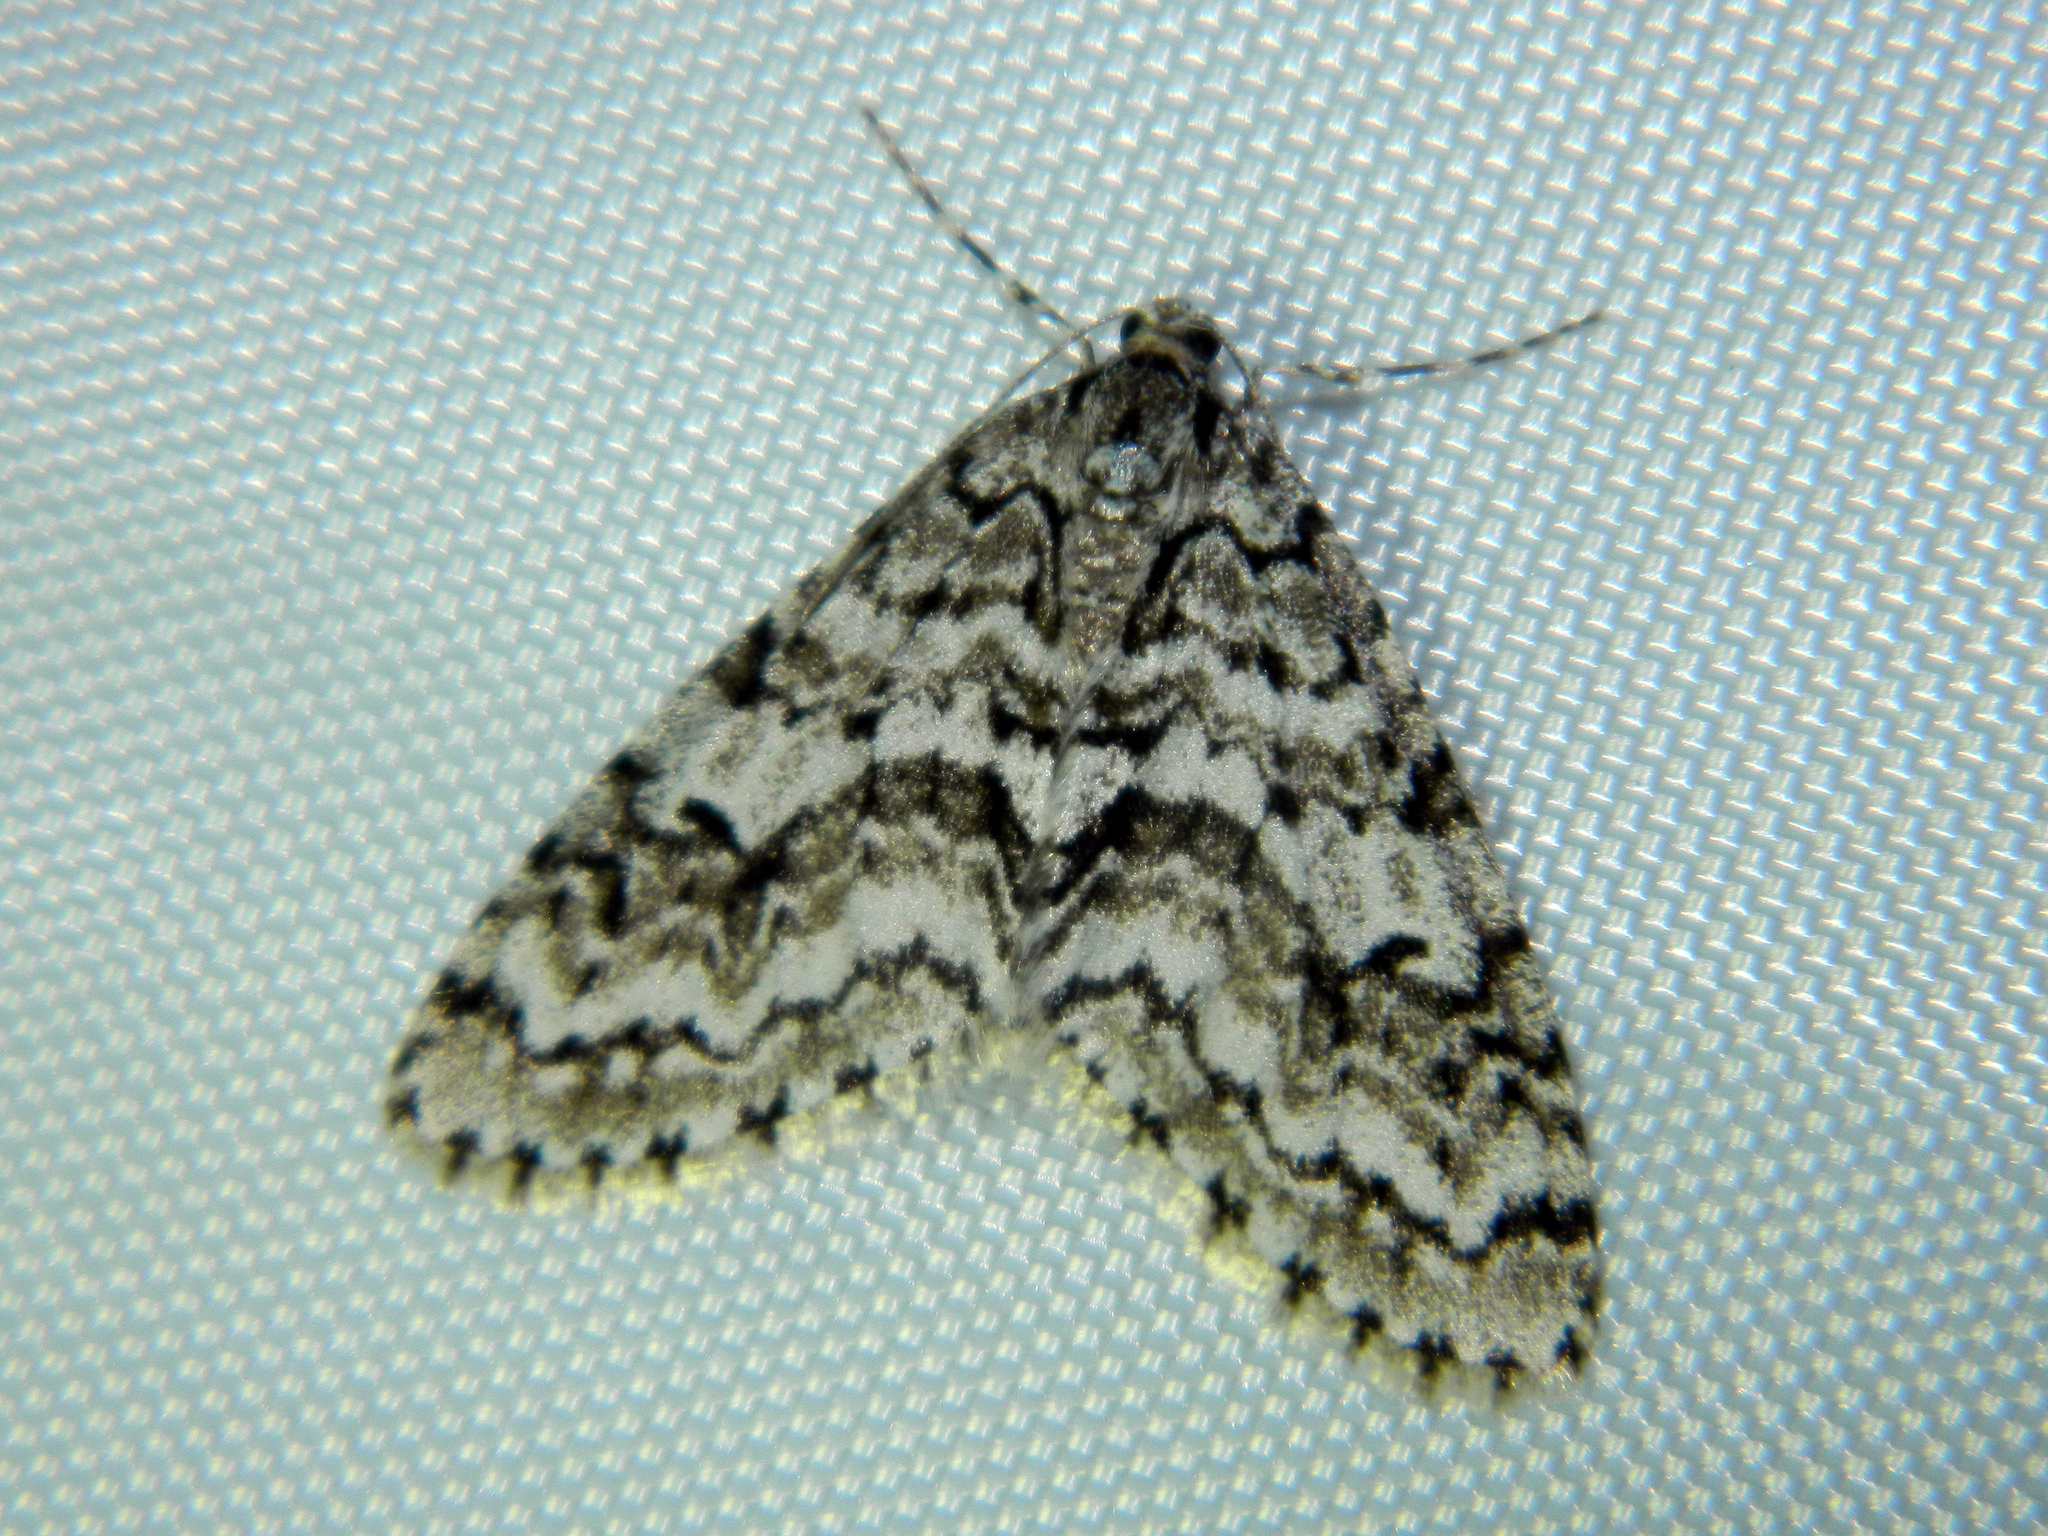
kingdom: Animalia
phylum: Arthropoda
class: Insecta
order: Lepidoptera
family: Geometridae
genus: Cladara
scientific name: Cladara atroliturata
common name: Scribbler
